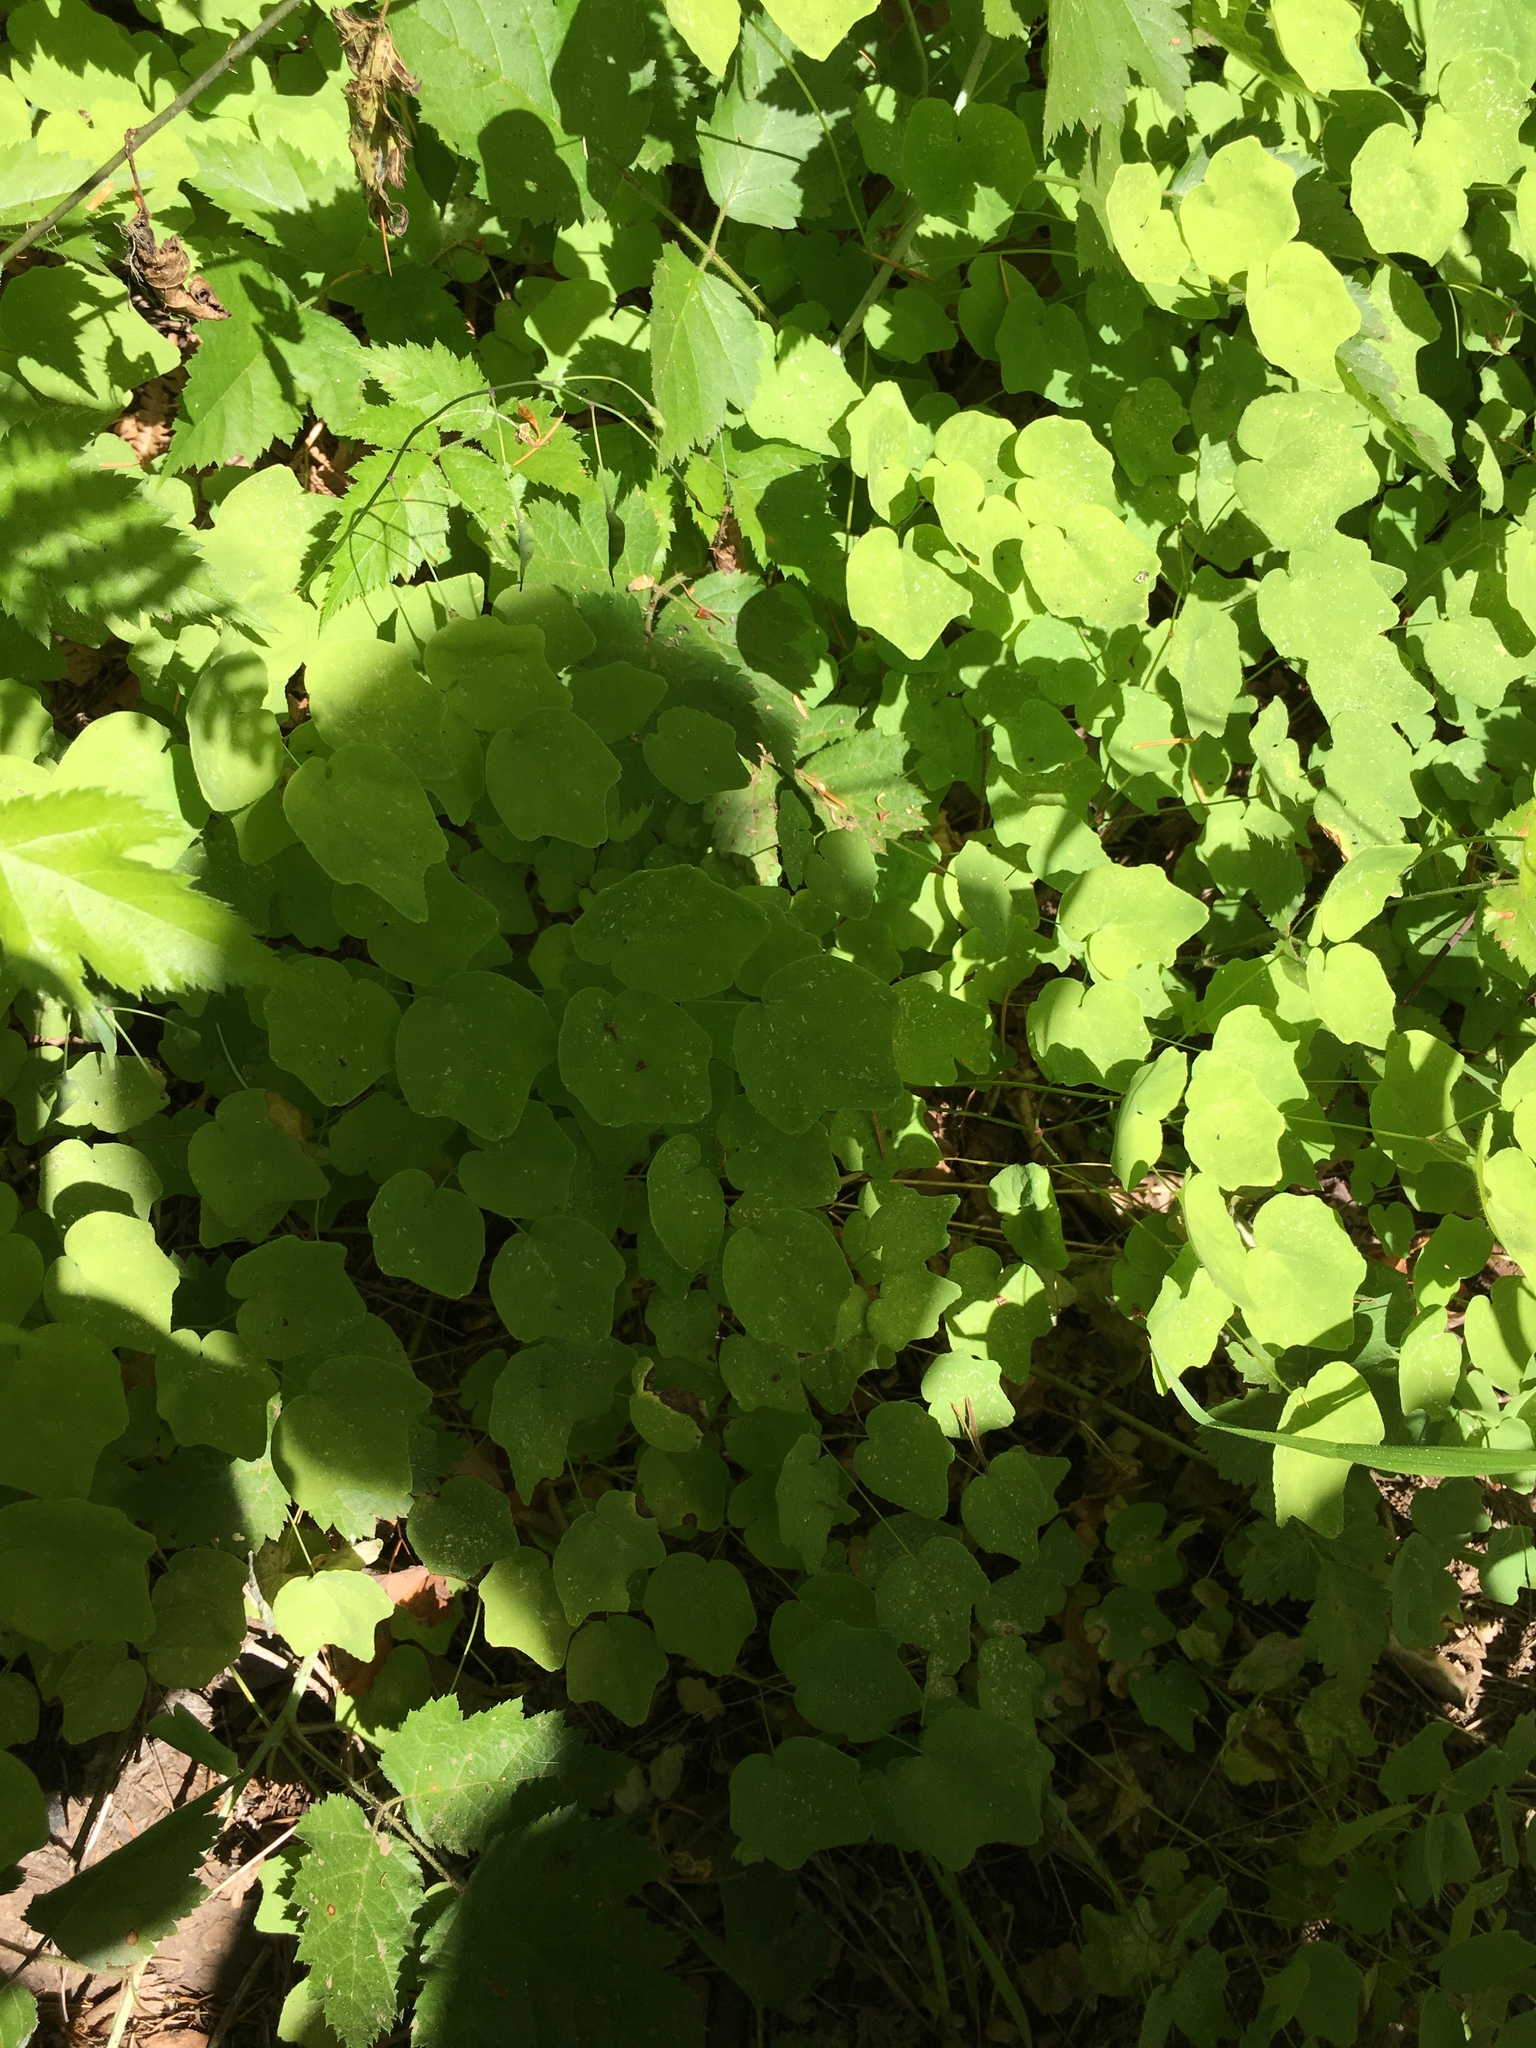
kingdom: Plantae
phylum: Tracheophyta
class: Magnoliopsida
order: Ranunculales
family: Berberidaceae
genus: Vancouveria
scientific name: Vancouveria hexandra
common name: Northern inside-out-flower
